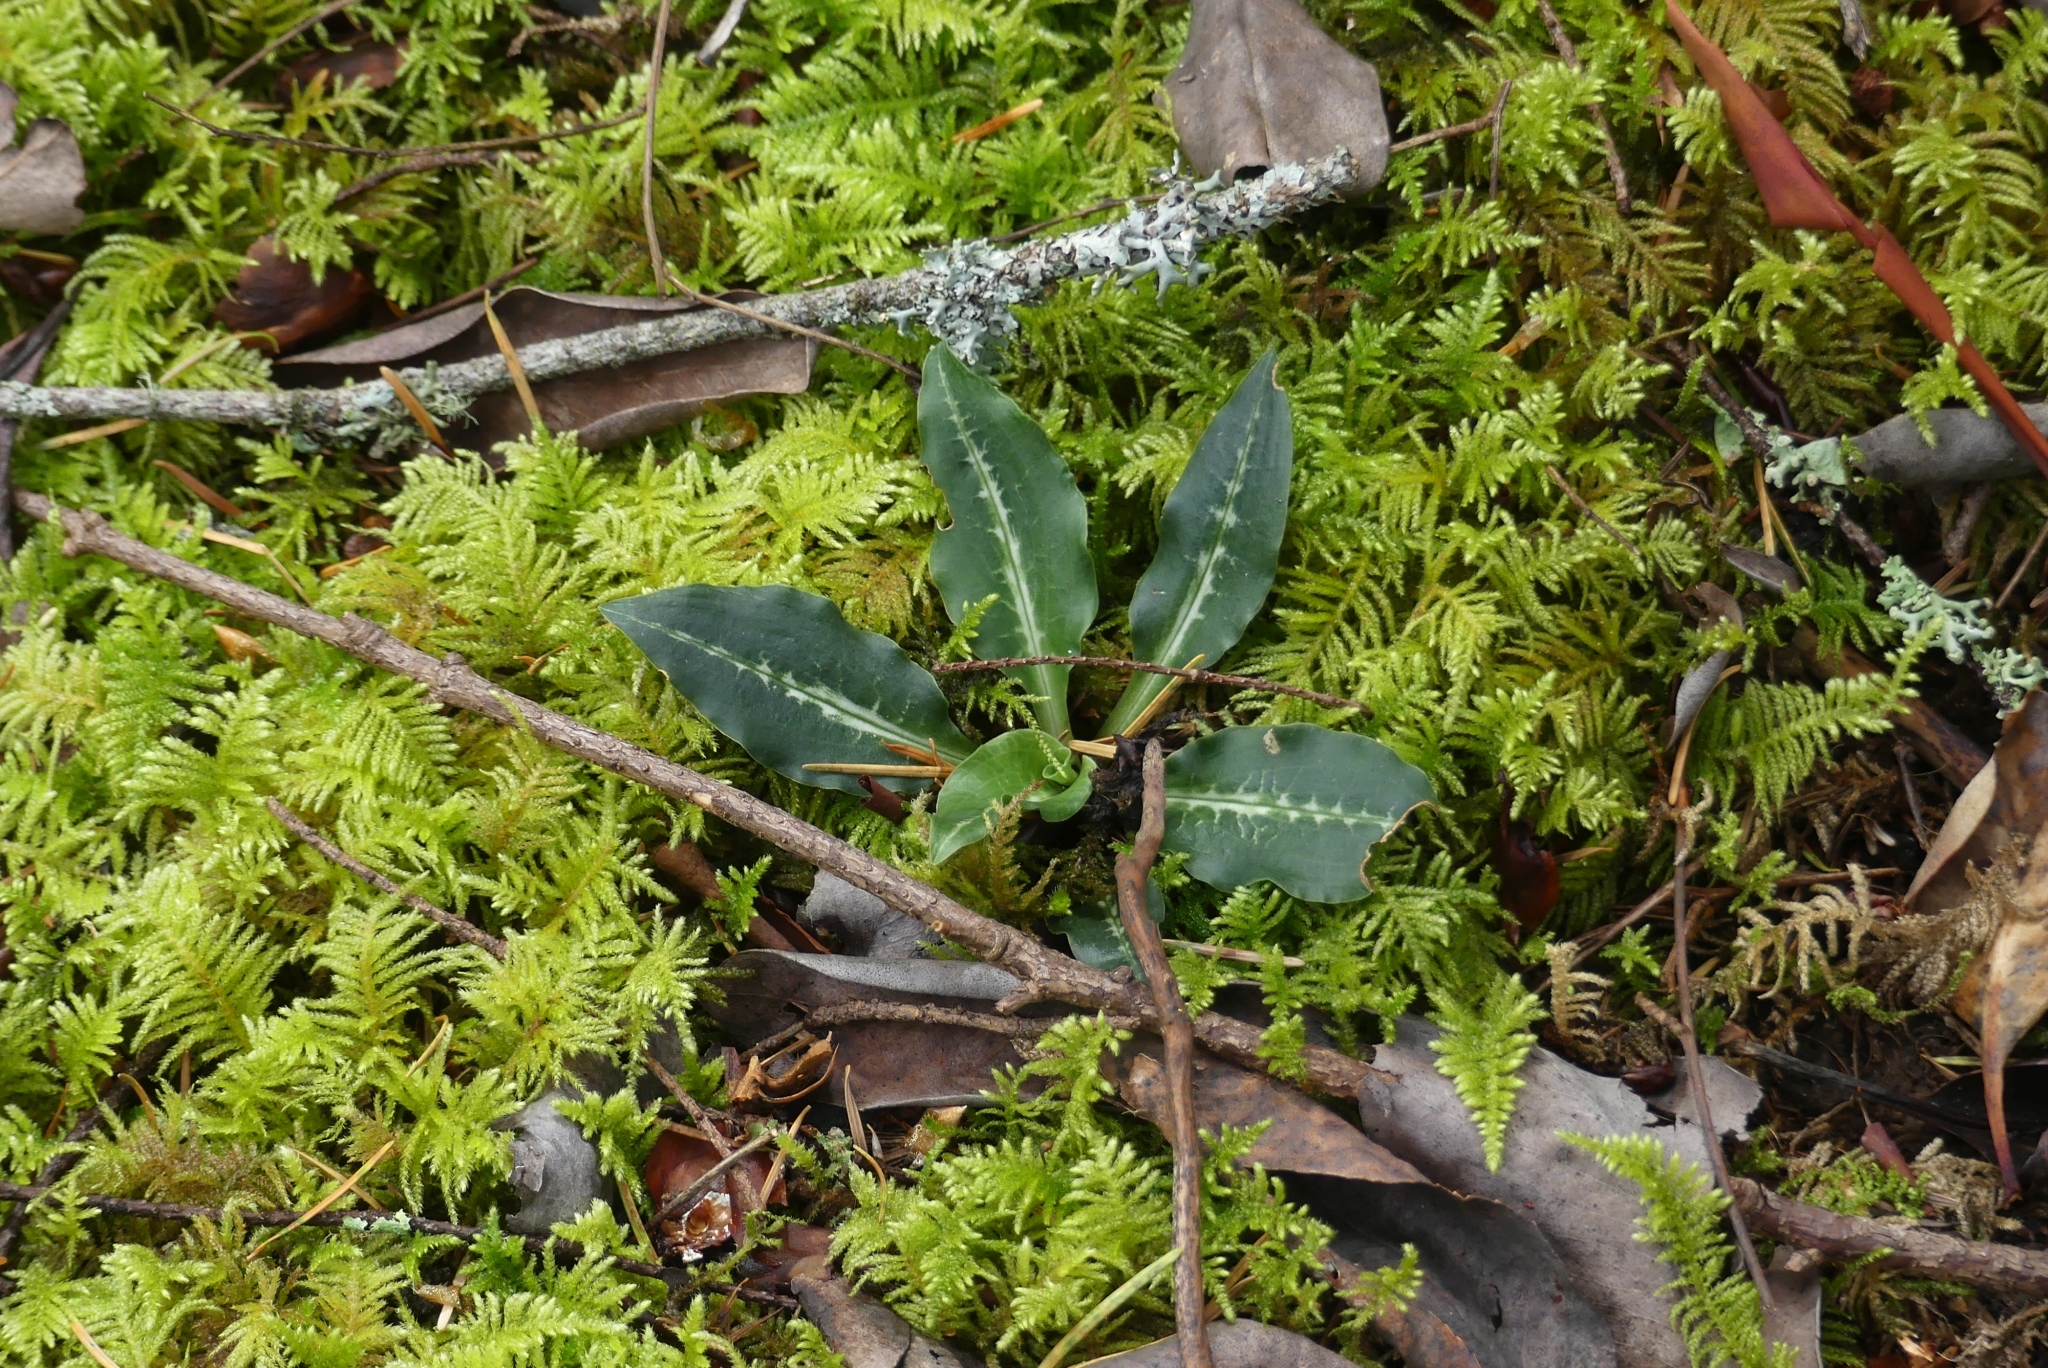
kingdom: Plantae
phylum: Tracheophyta
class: Liliopsida
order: Asparagales
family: Orchidaceae
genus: Goodyera
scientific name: Goodyera oblongifolia
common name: Giant rattlesnake-plantain
